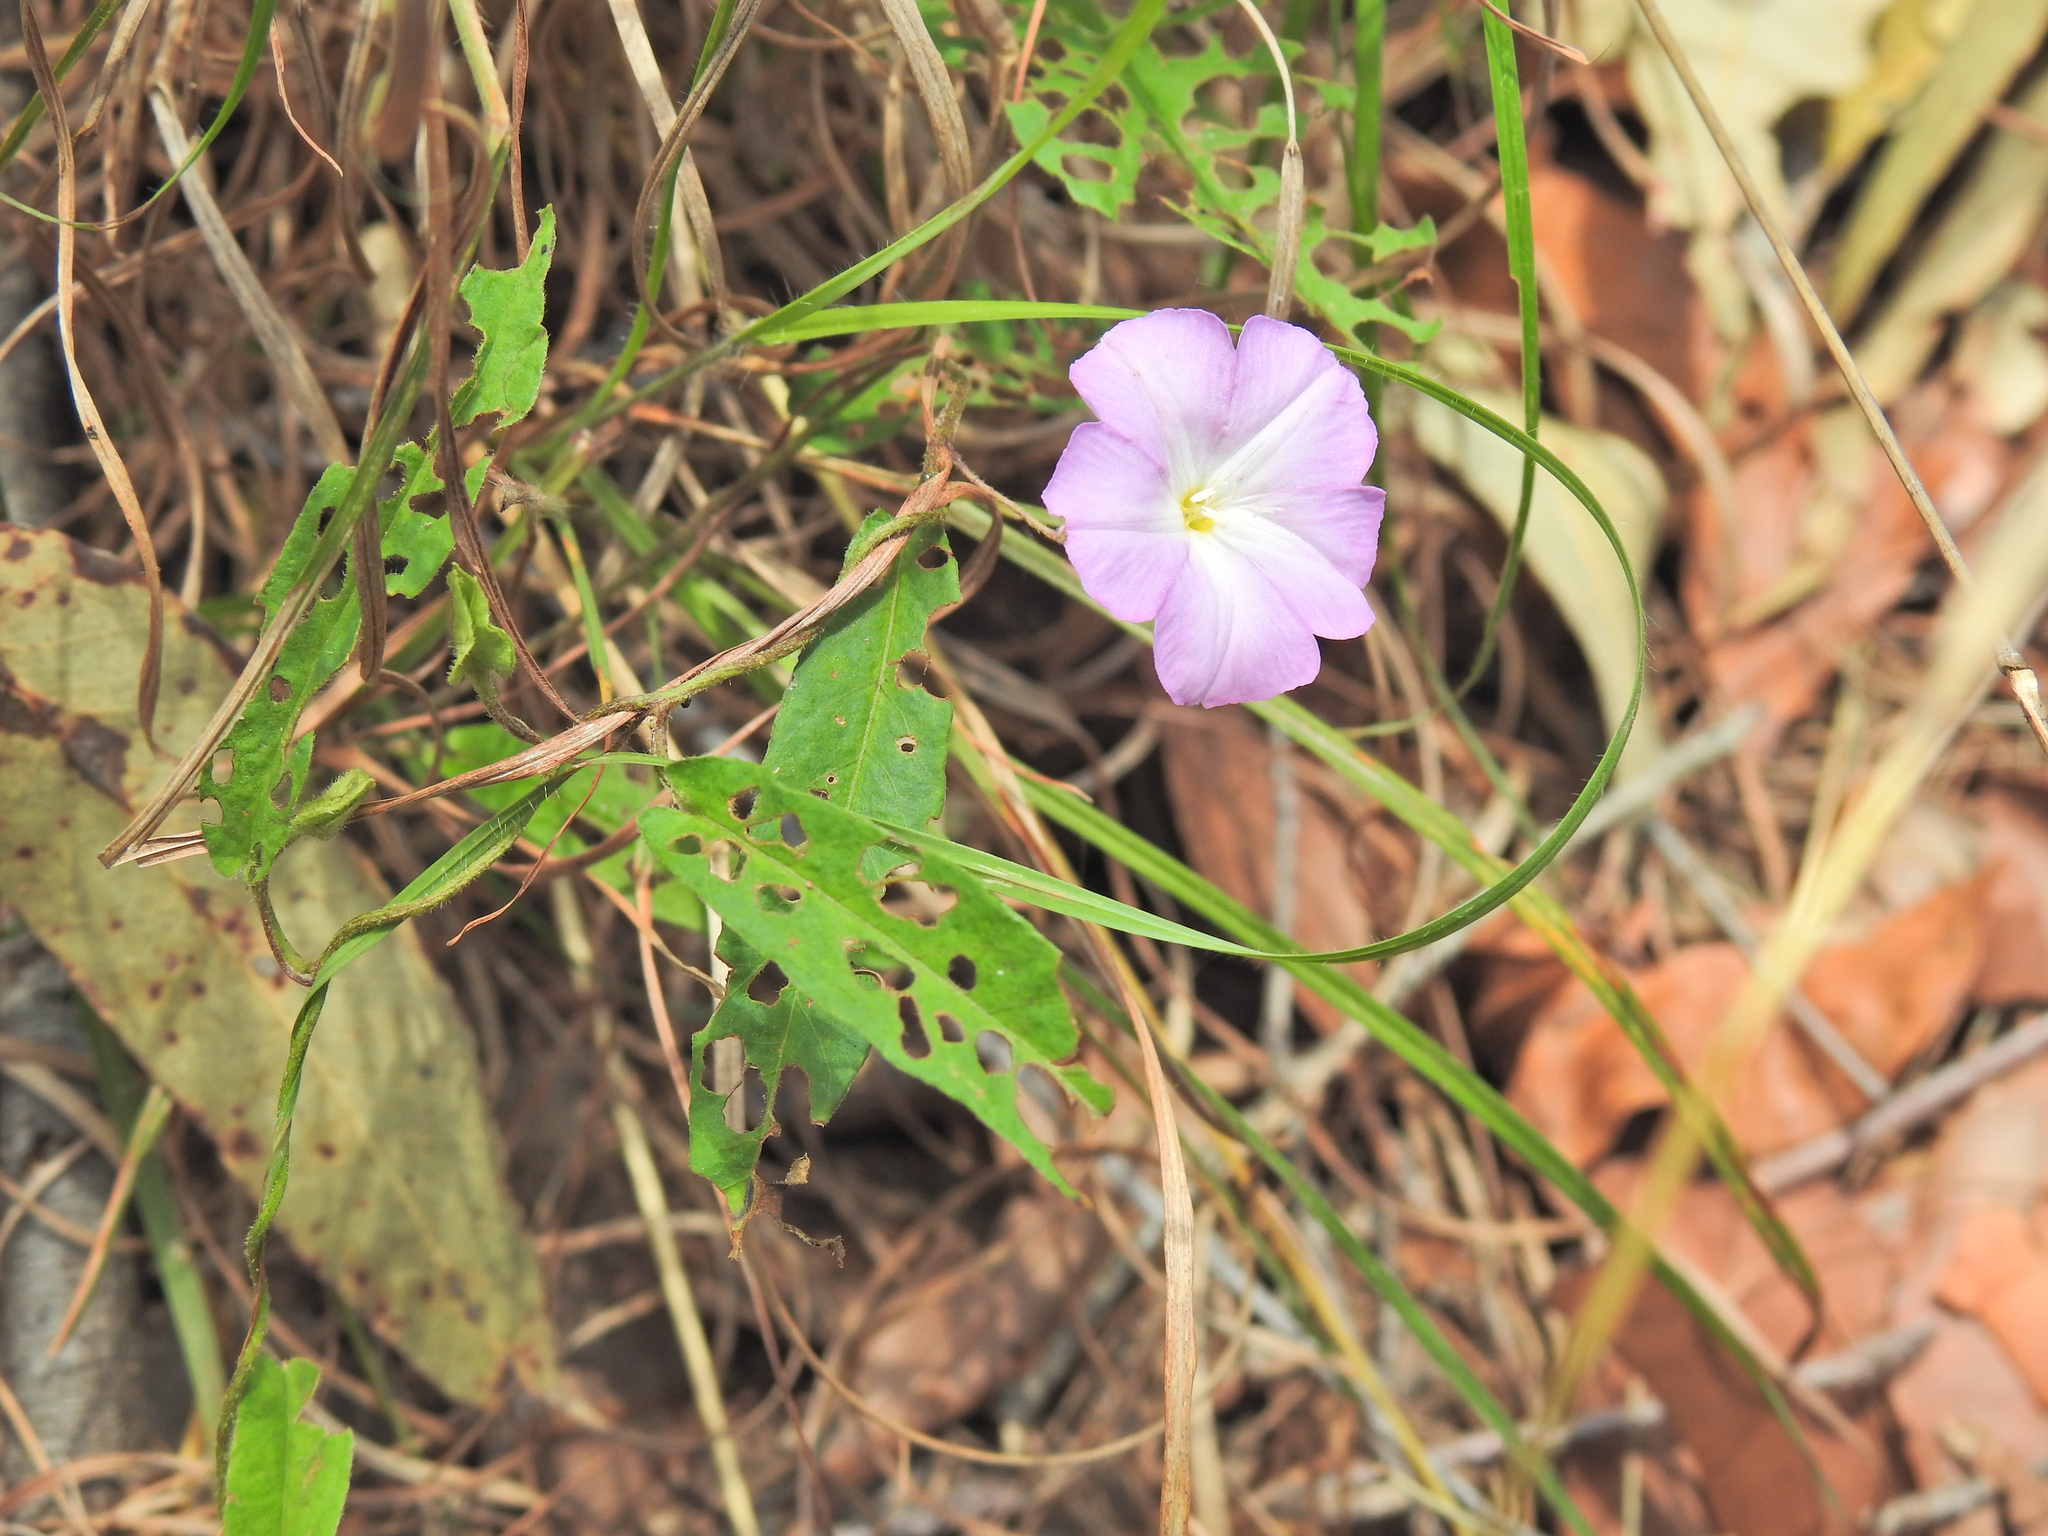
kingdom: Plantae
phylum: Tracheophyta
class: Magnoliopsida
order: Solanales
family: Convolvulaceae
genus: Polymeria
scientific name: Polymeria calycina
